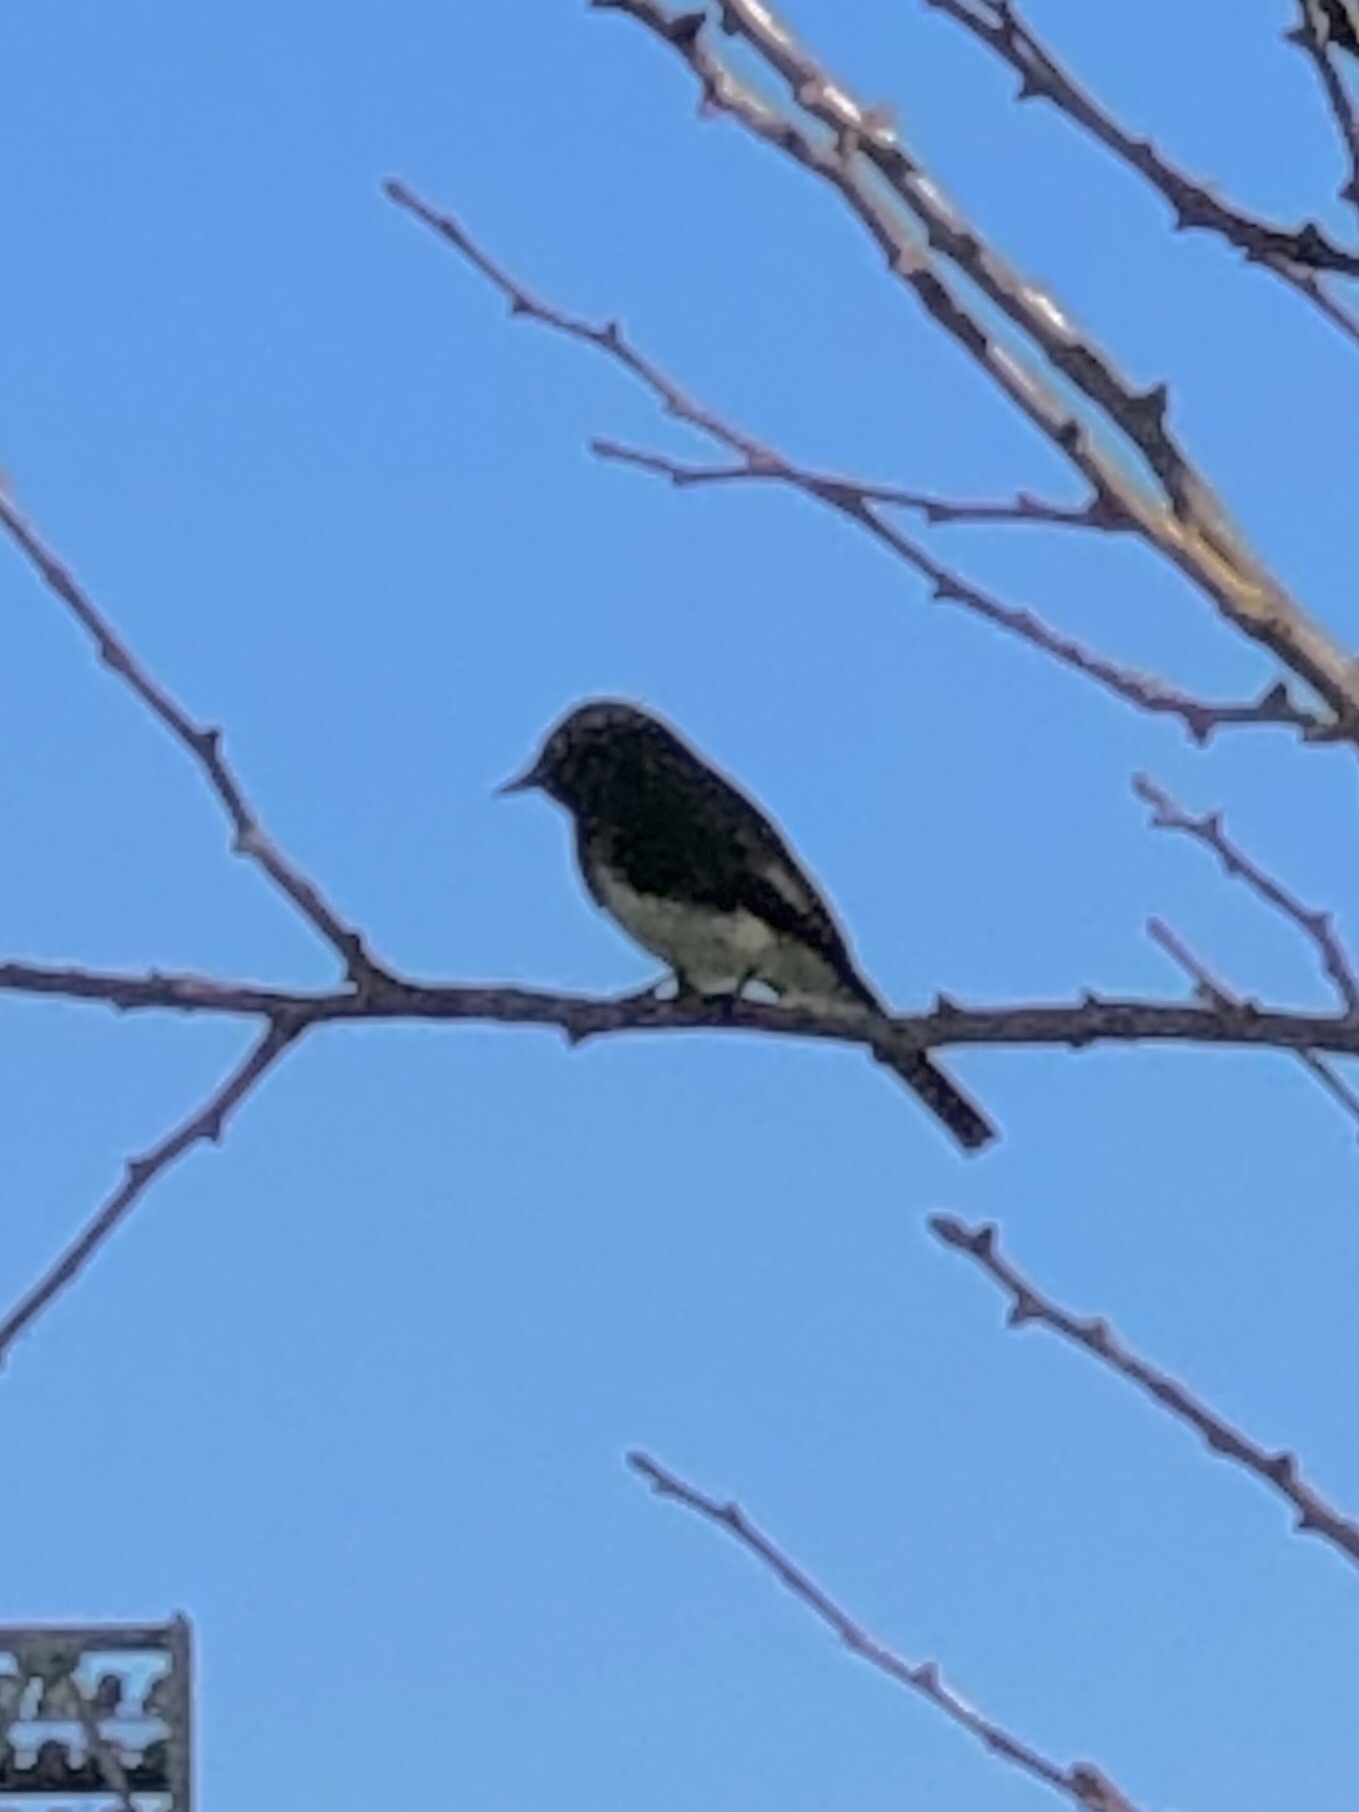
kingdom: Animalia
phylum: Chordata
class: Aves
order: Passeriformes
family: Tyrannidae
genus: Sayornis
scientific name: Sayornis nigricans
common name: Black phoebe
